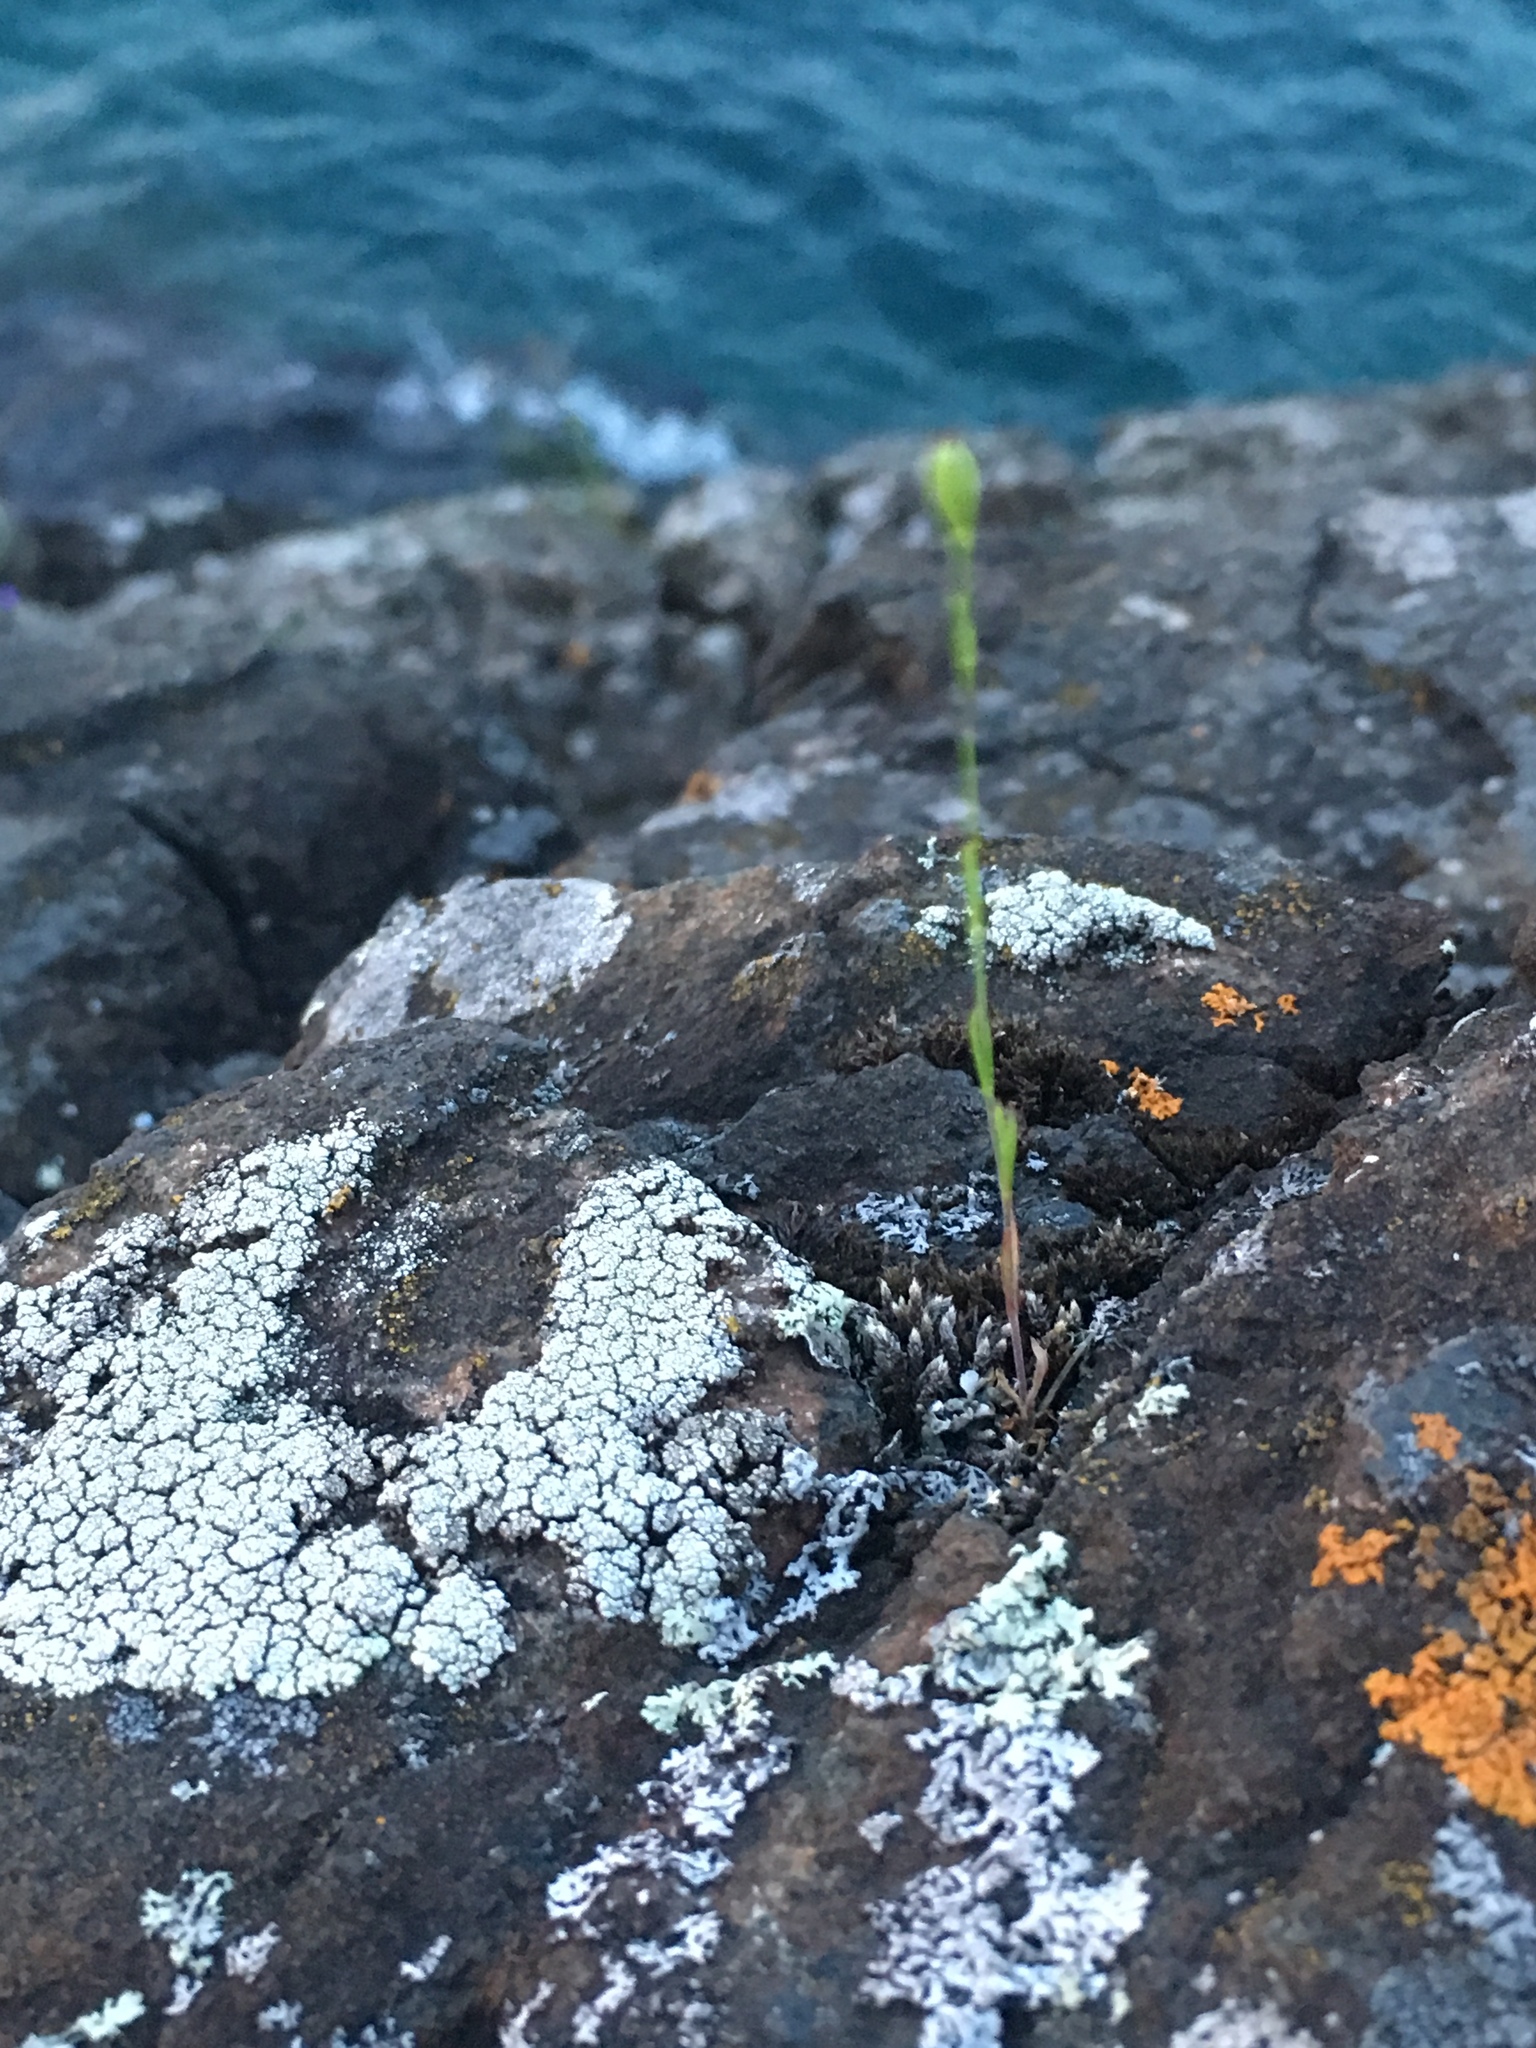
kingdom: Plantae
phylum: Tracheophyta
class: Magnoliopsida
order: Caryophyllales
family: Caryophyllaceae
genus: Silene
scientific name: Silene antirrhina
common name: Sleepy catchfly
